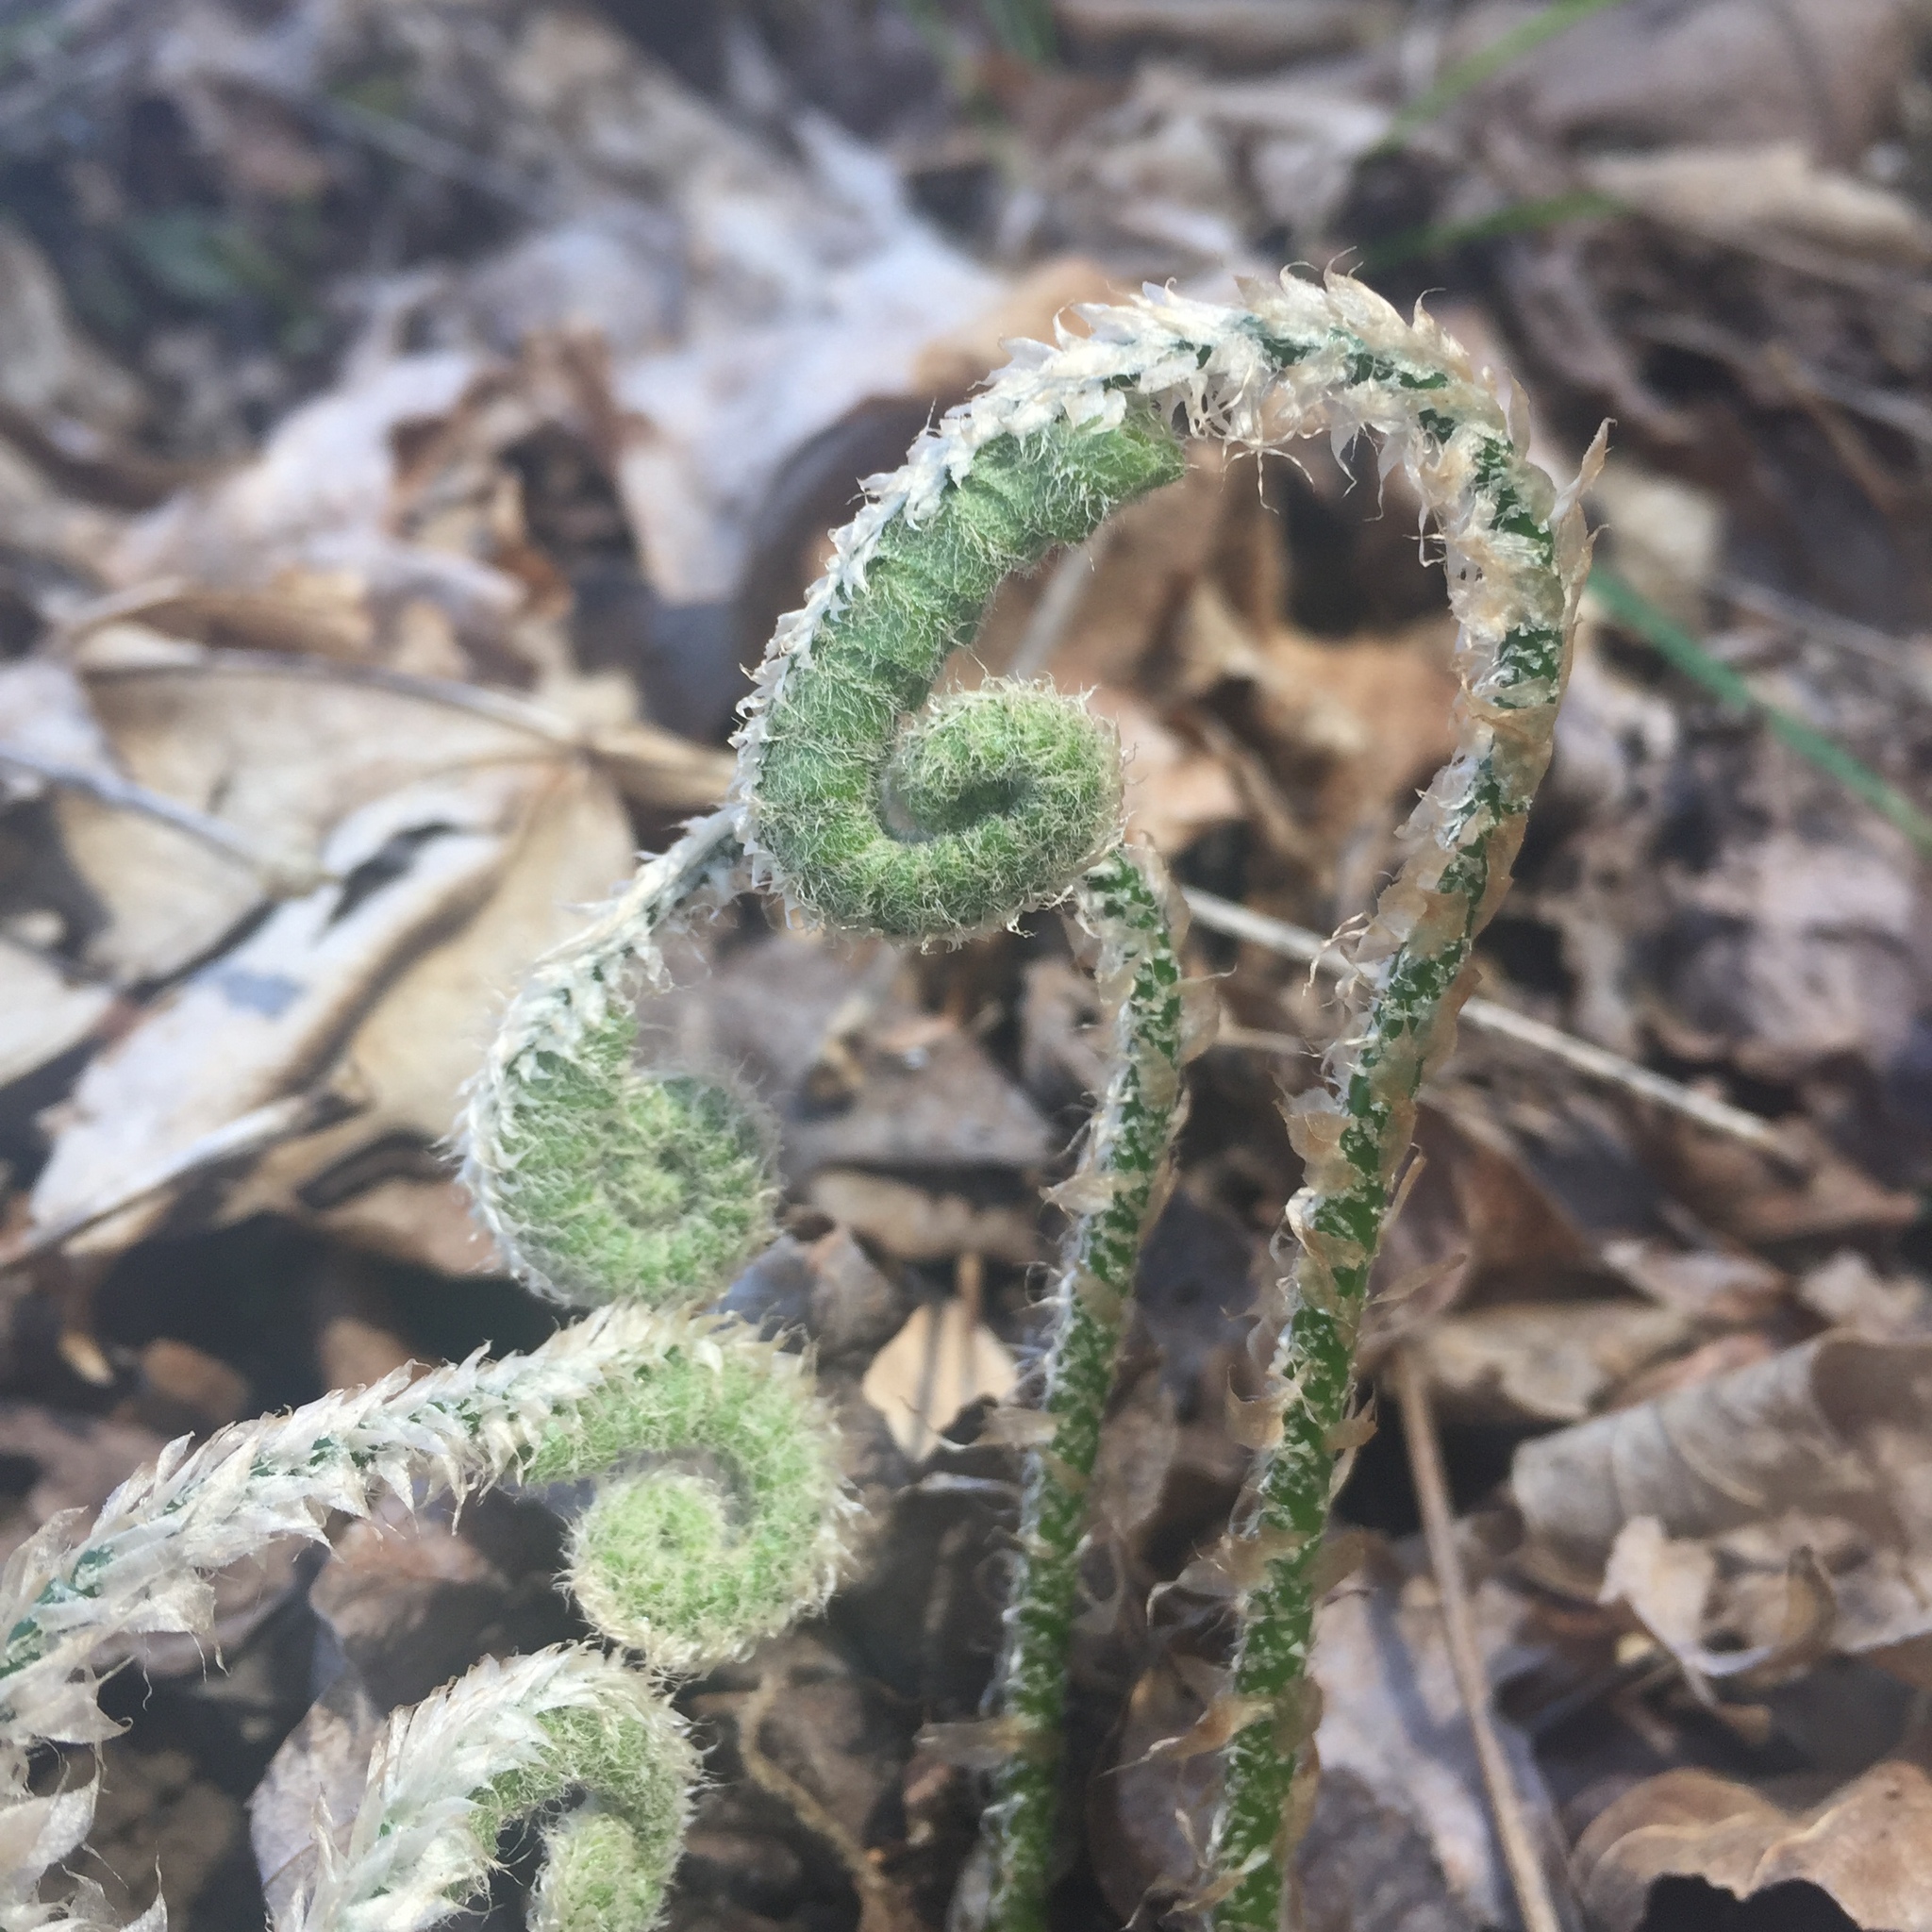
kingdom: Plantae
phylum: Tracheophyta
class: Polypodiopsida
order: Polypodiales
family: Dryopteridaceae
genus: Polystichum
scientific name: Polystichum acrostichoides
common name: Christmas fern
